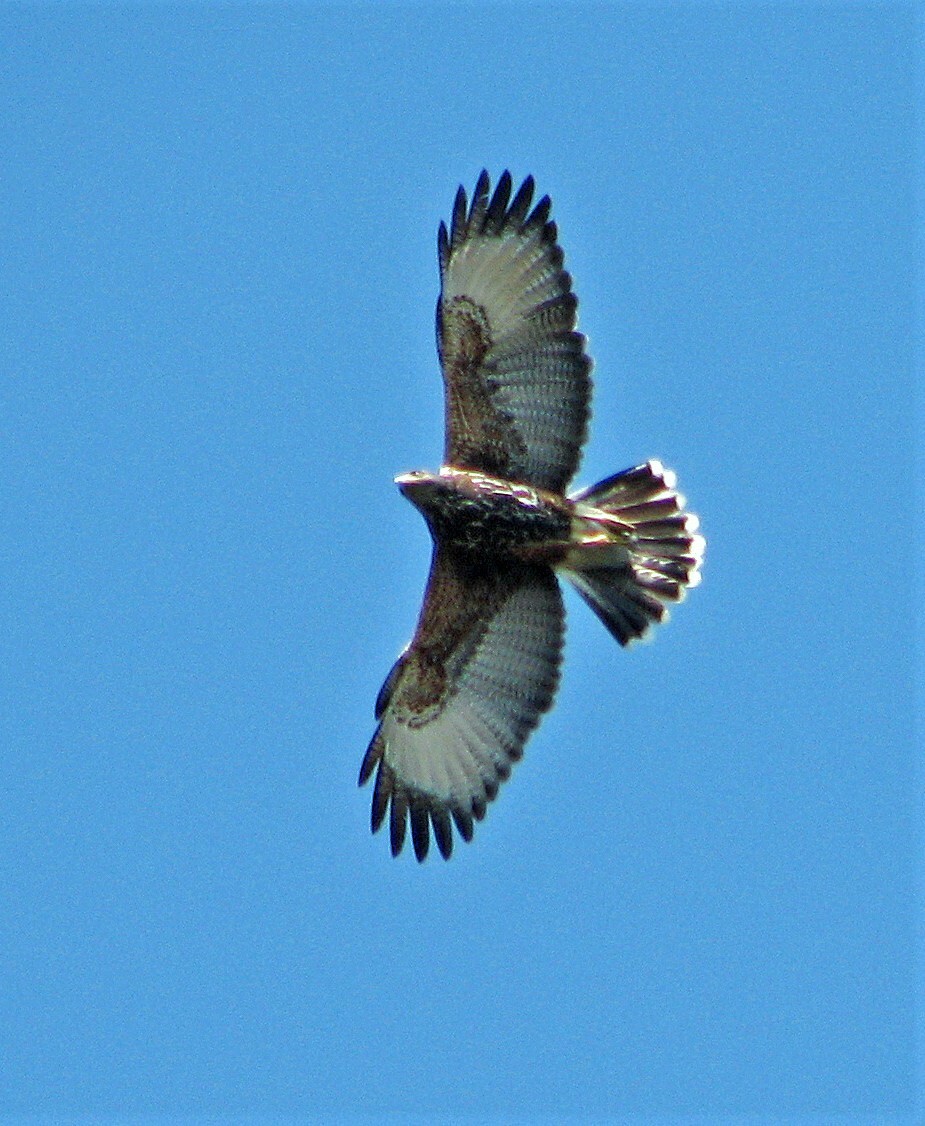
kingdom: Animalia
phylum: Chordata
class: Aves
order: Accipitriformes
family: Accipitridae
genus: Parabuteo
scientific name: Parabuteo unicinctus
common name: Harris's hawk
